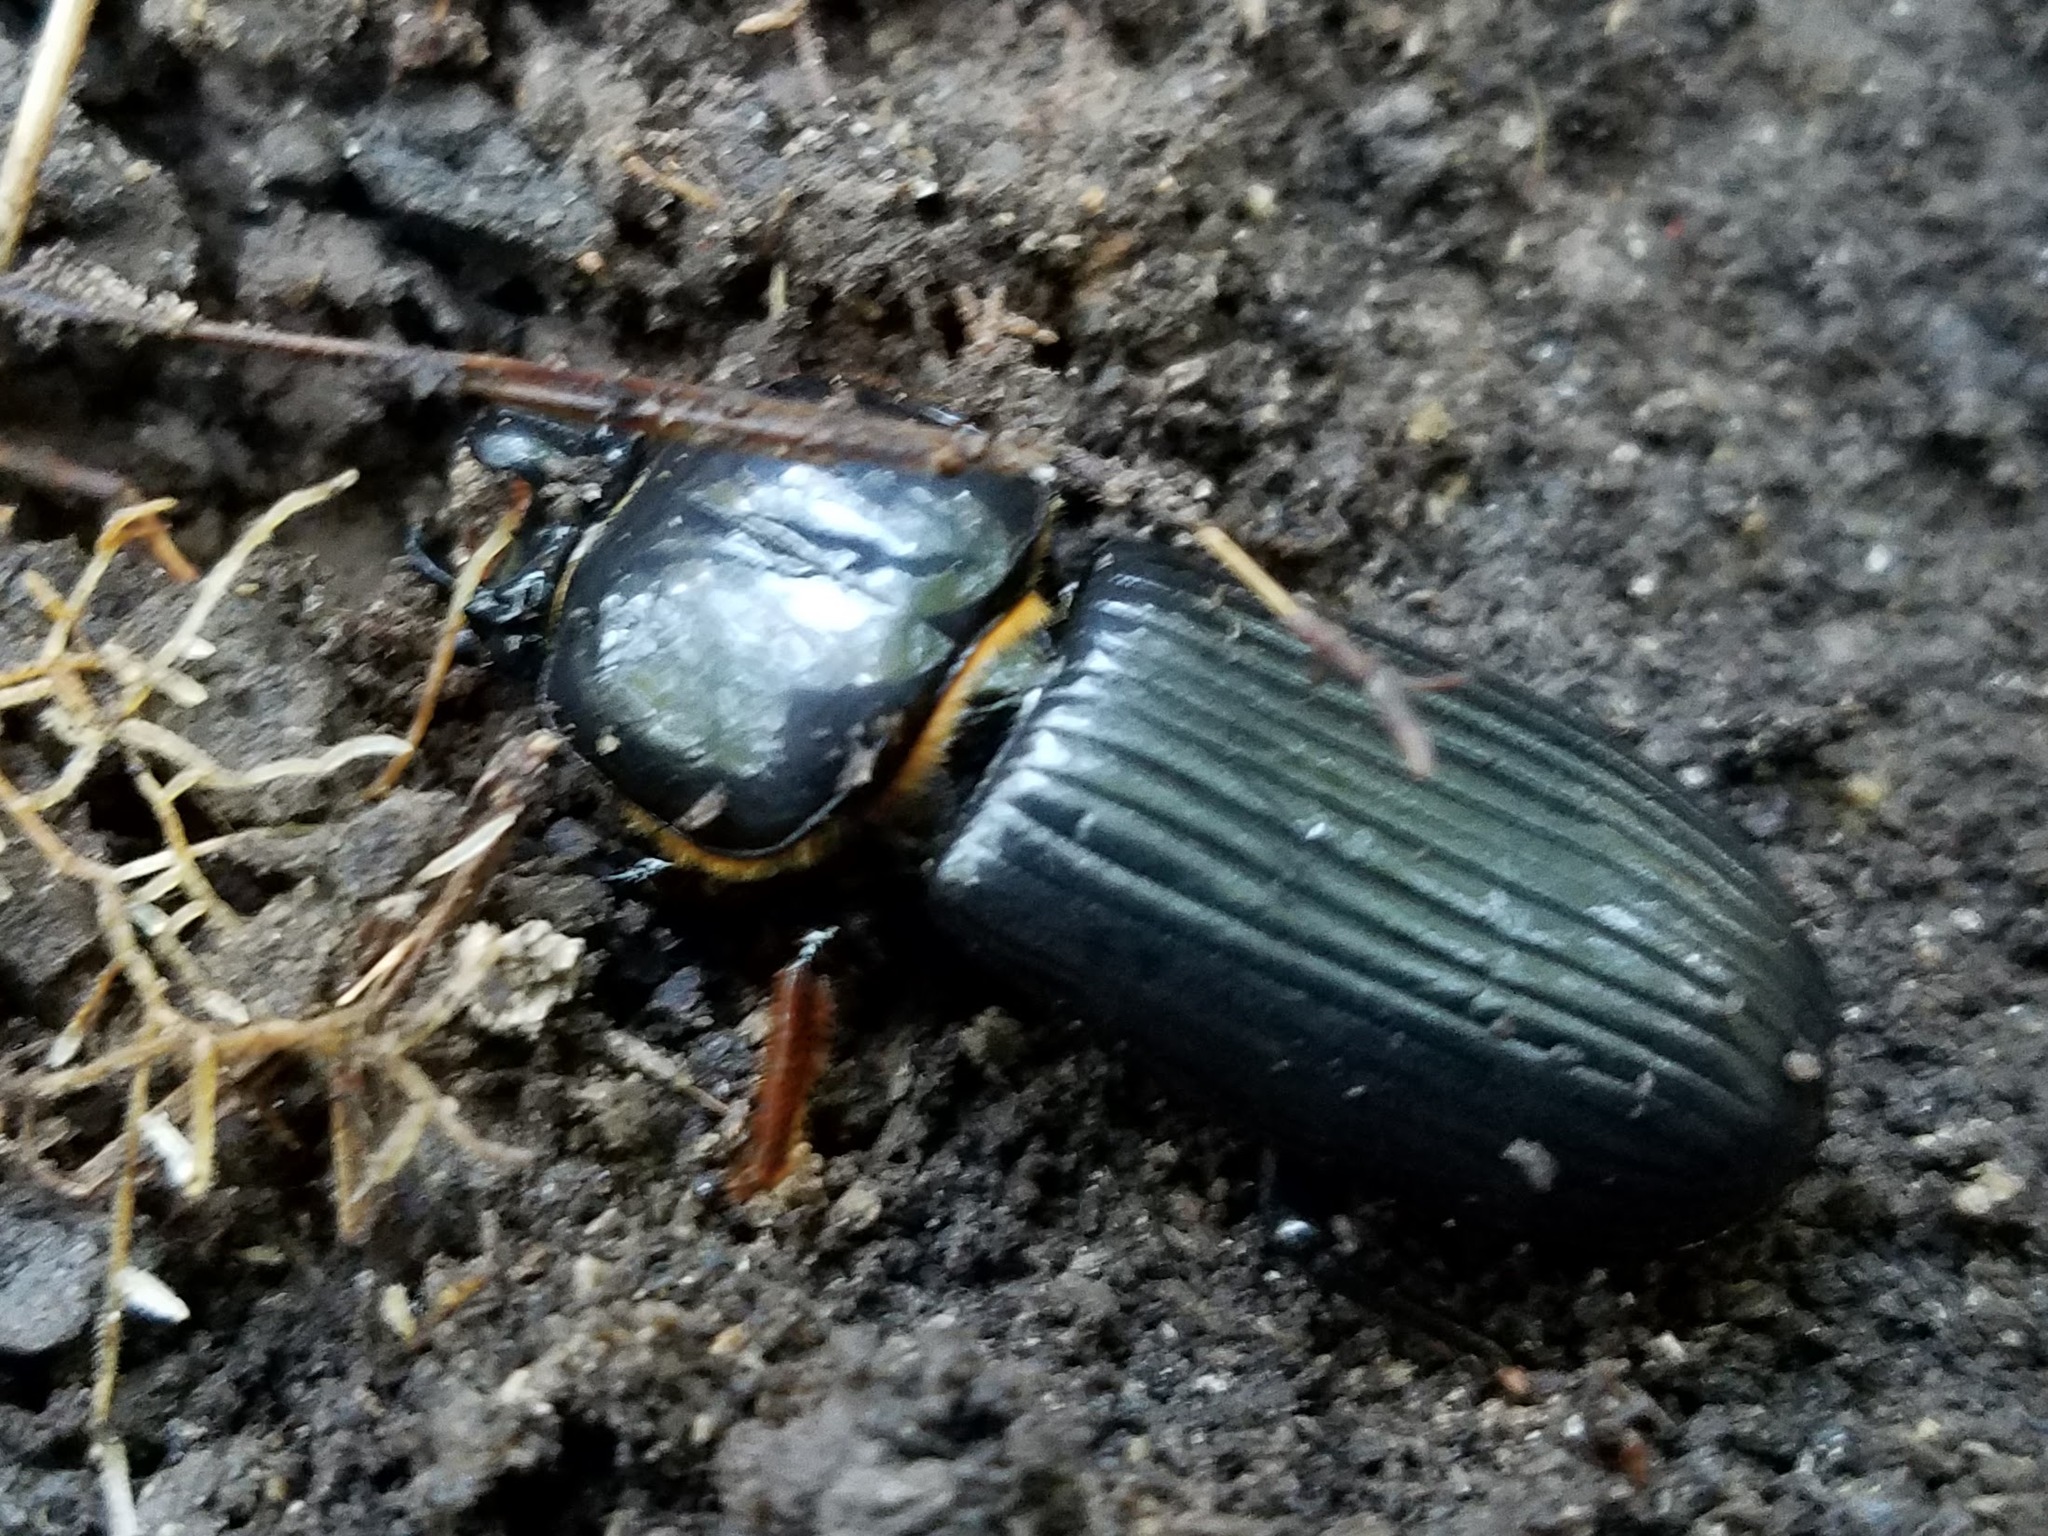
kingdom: Animalia
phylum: Arthropoda
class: Insecta
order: Coleoptera
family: Passalidae
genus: Odontotaenius
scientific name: Odontotaenius disjunctus
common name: Patent leather beetle
